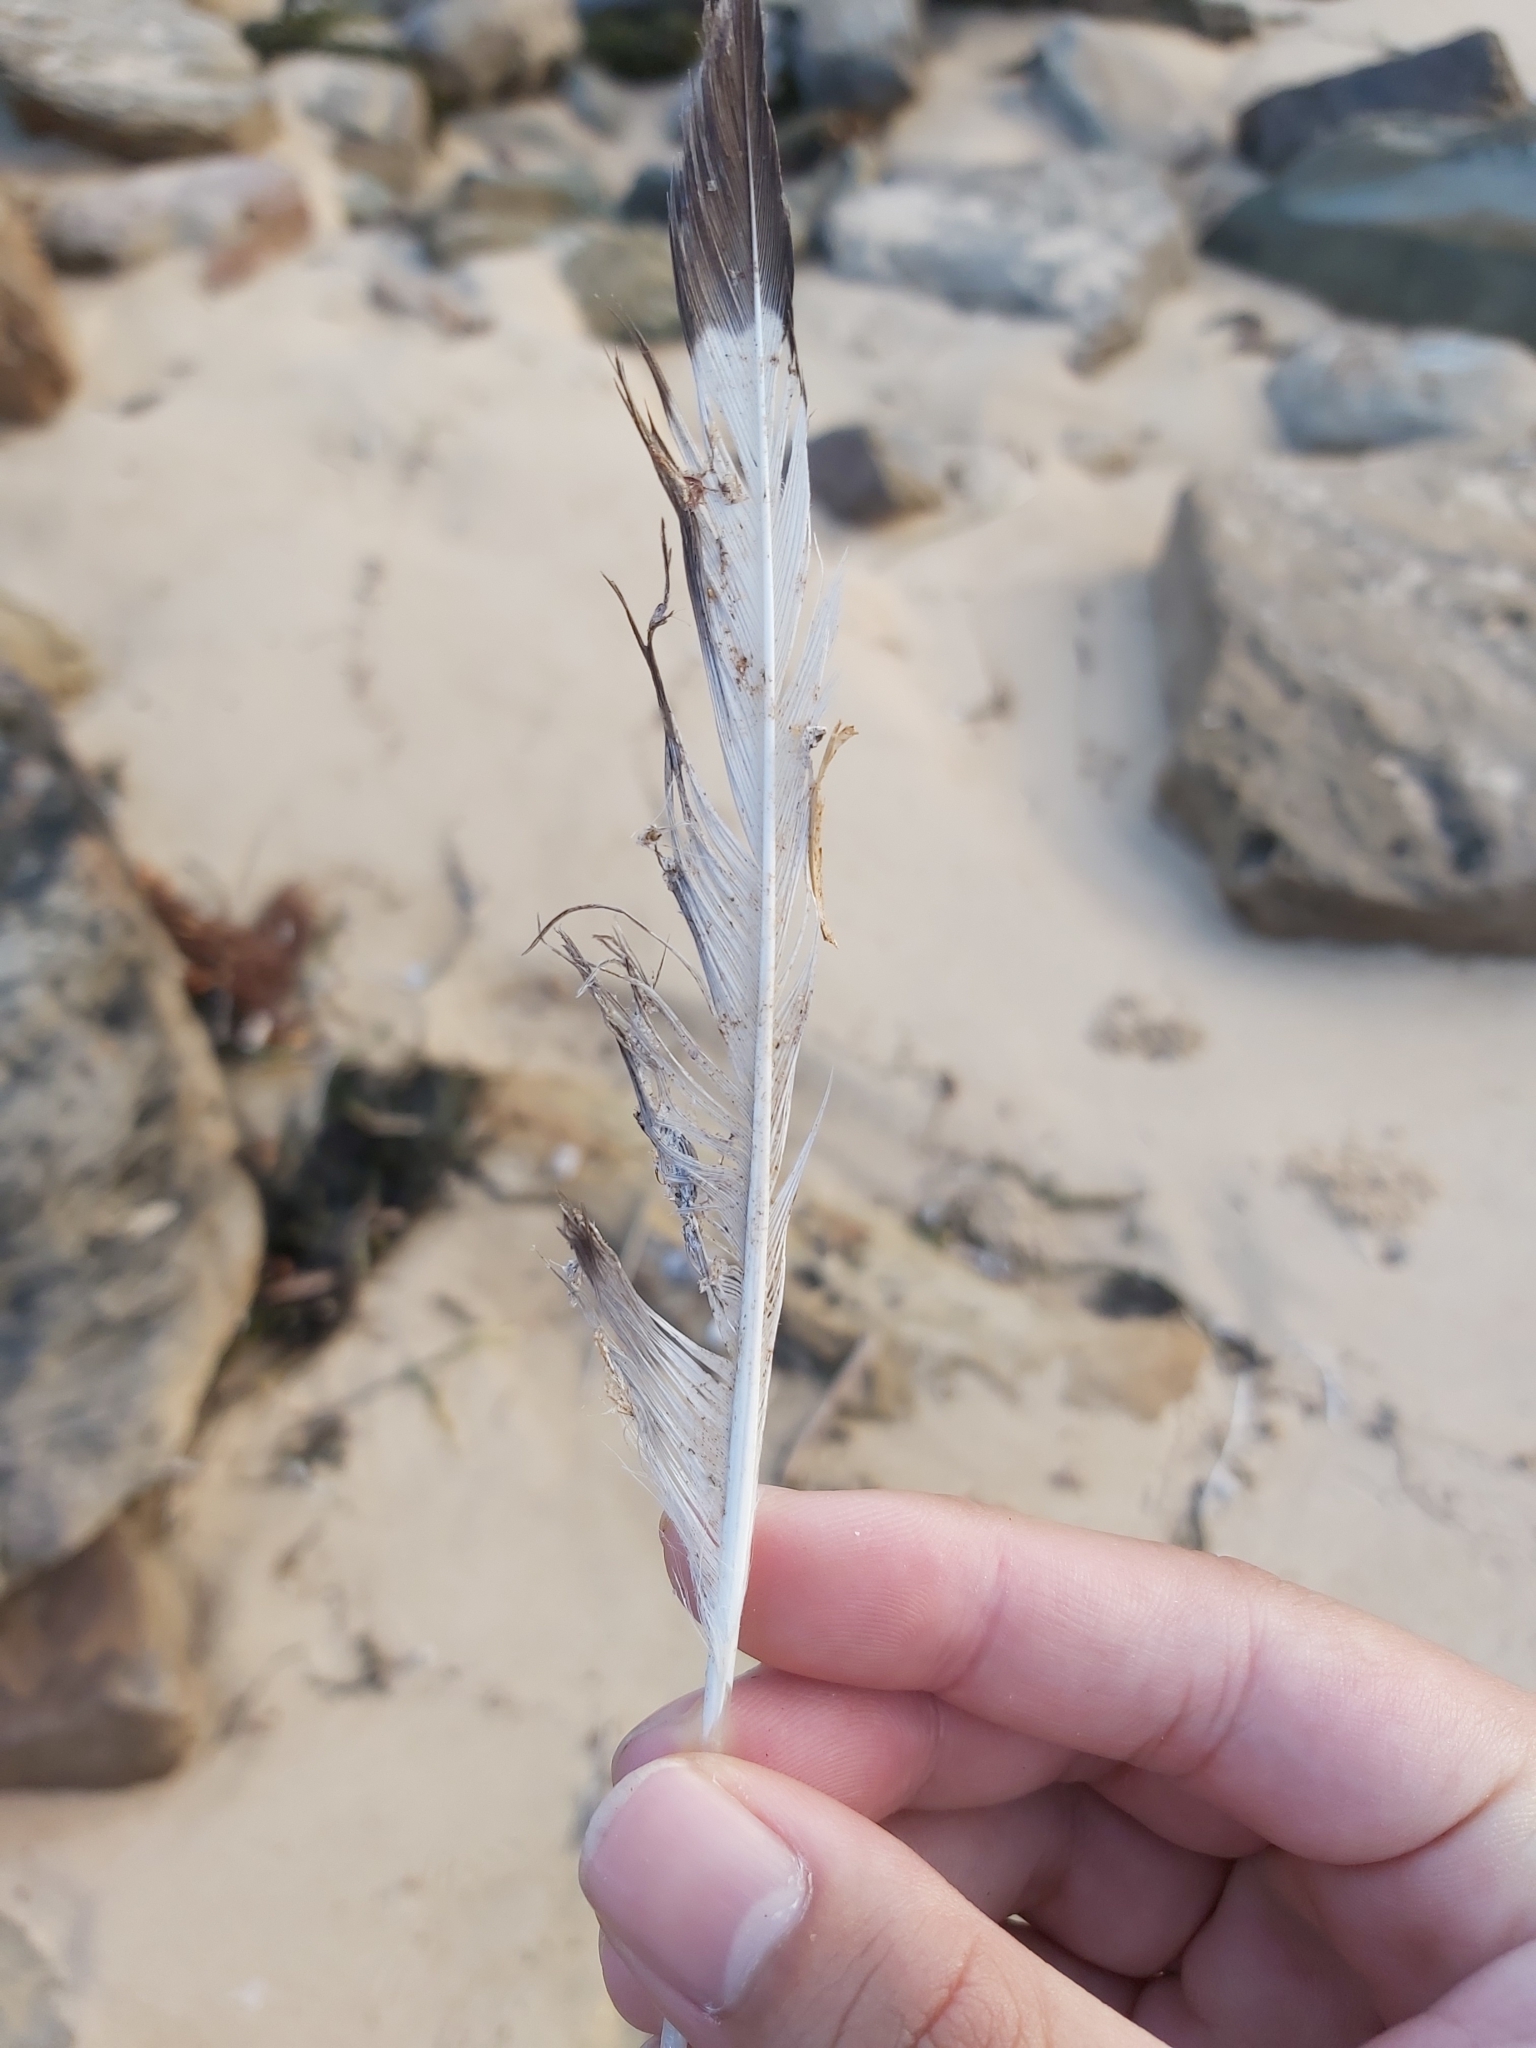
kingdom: Animalia
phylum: Chordata
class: Aves
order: Charadriiformes
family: Laridae
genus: Chroicocephalus
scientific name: Chroicocephalus novaehollandiae
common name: Silver gull
